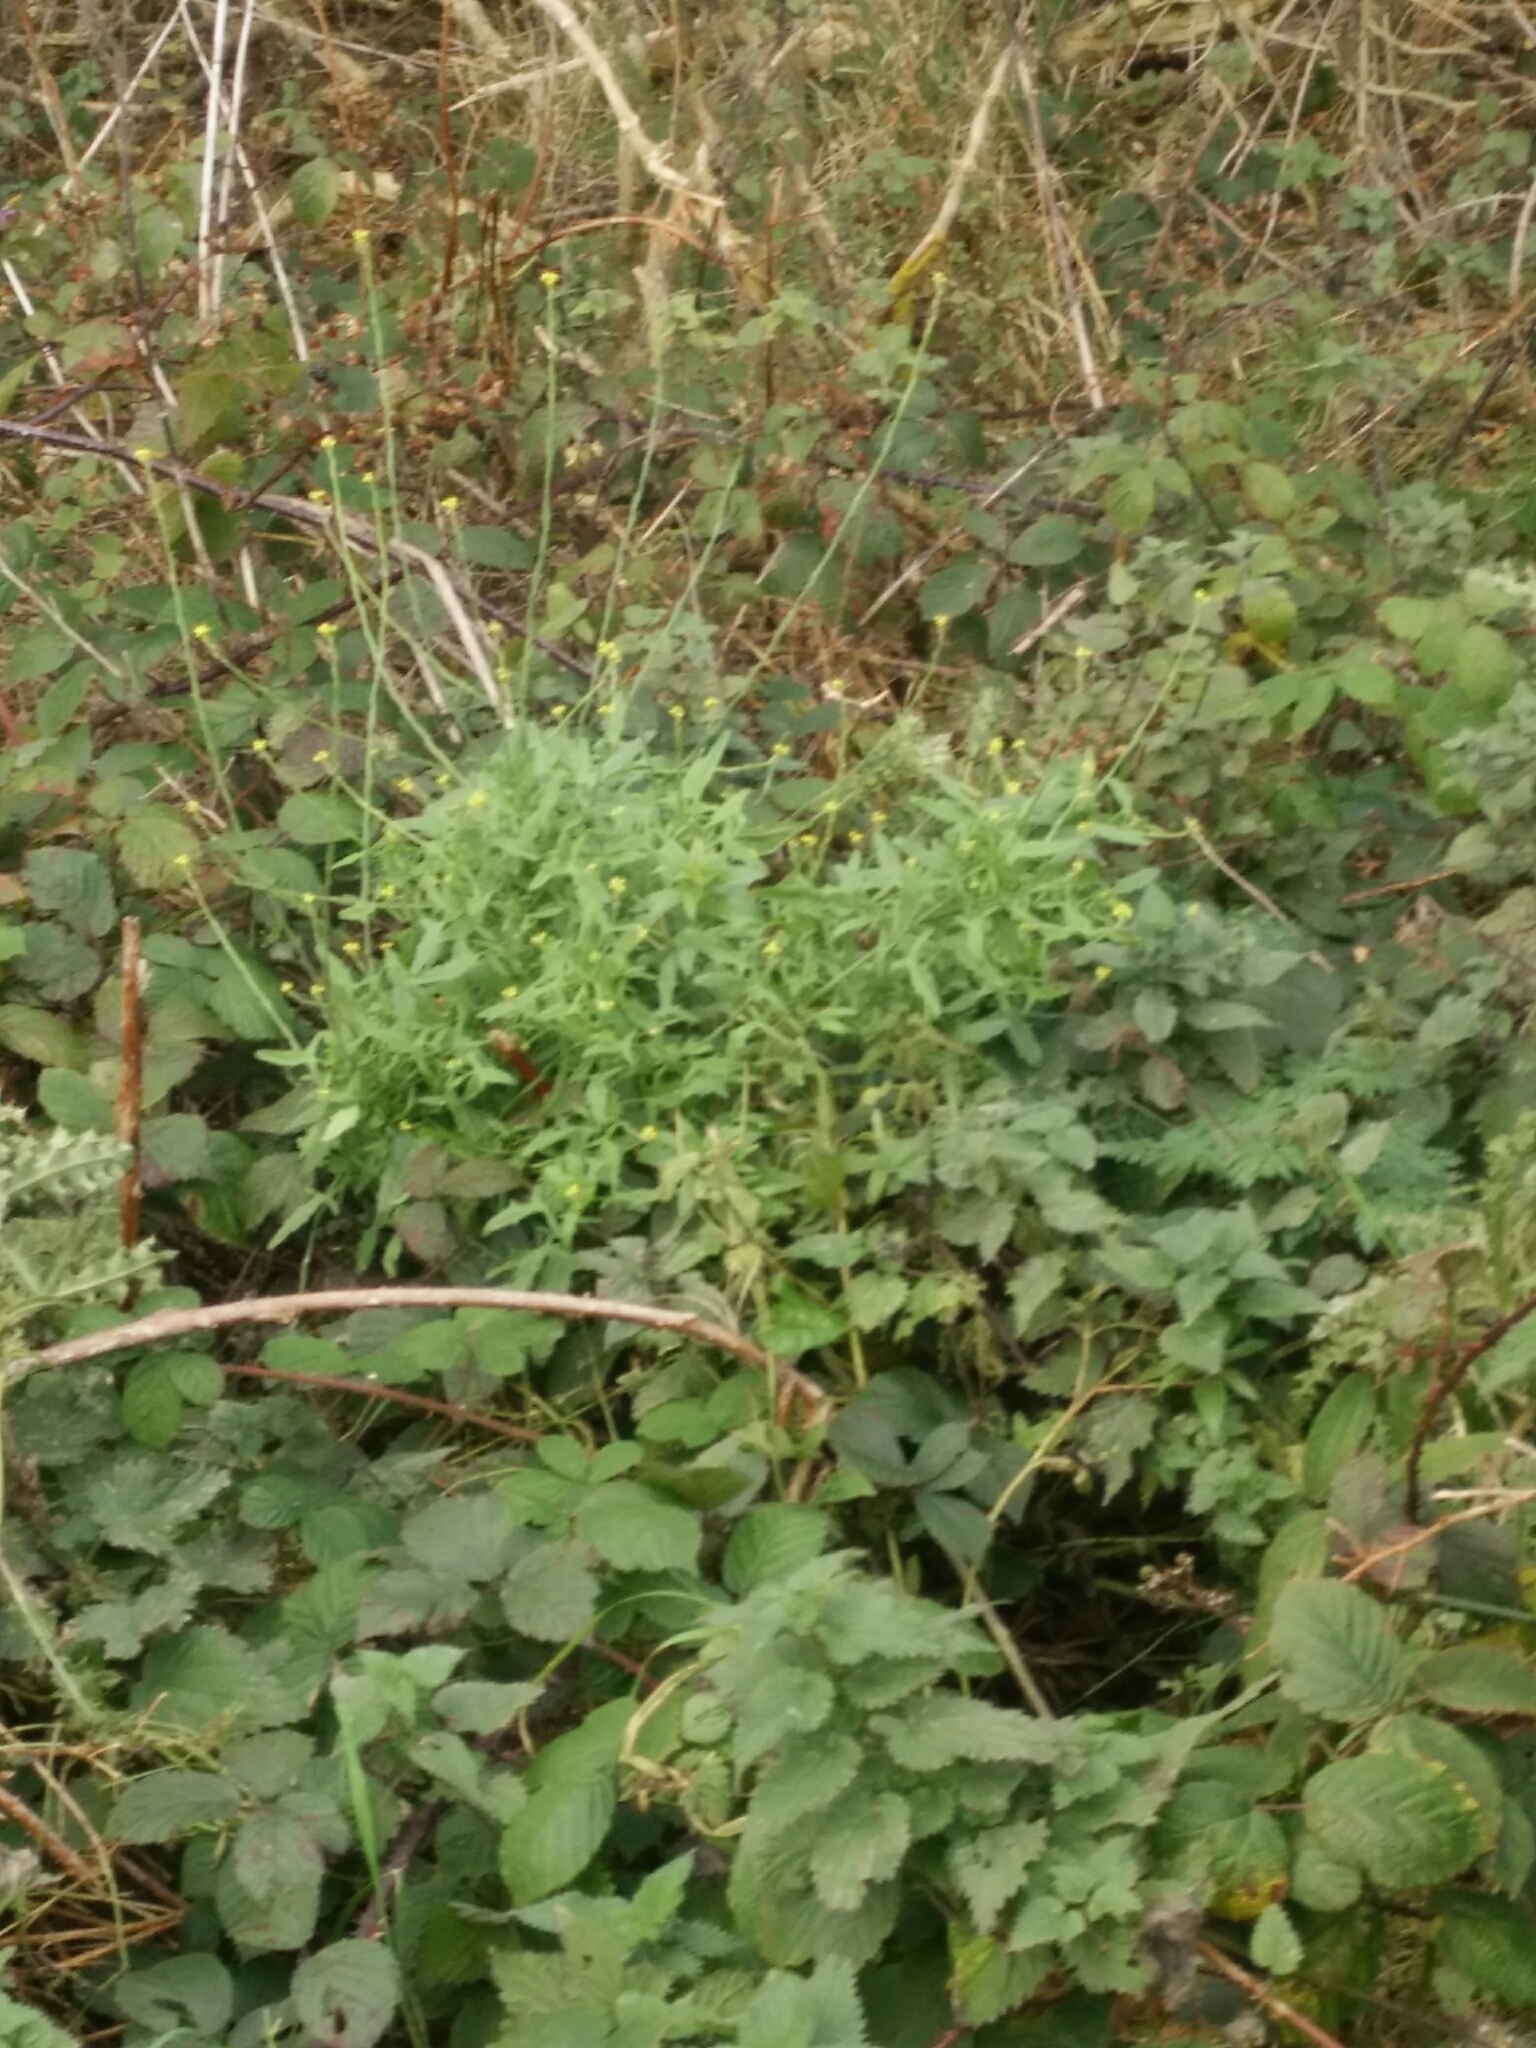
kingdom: Plantae
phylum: Tracheophyta
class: Magnoliopsida
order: Brassicales
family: Brassicaceae
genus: Sisymbrium
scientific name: Sisymbrium officinale
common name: Hedge mustard
